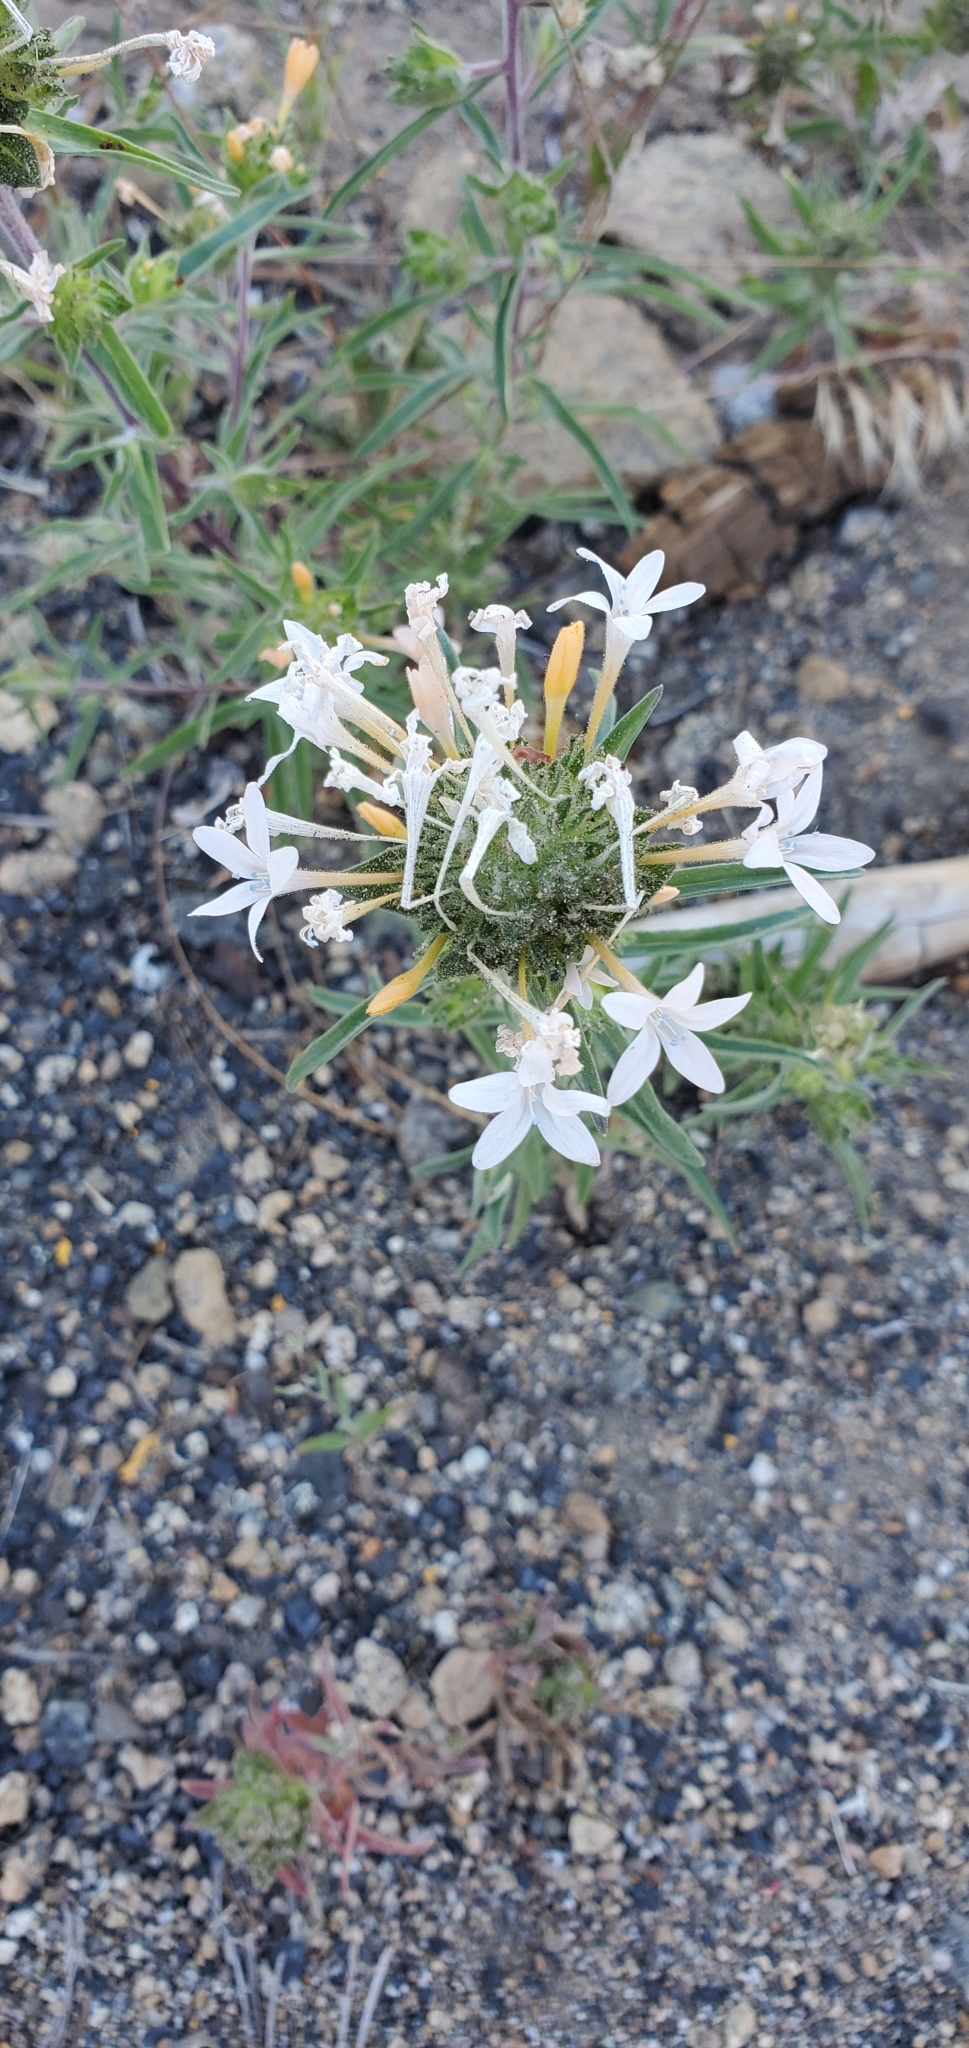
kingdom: Plantae
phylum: Tracheophyta
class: Magnoliopsida
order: Ericales
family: Polemoniaceae
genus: Collomia
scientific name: Collomia grandiflora
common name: California strawflower
